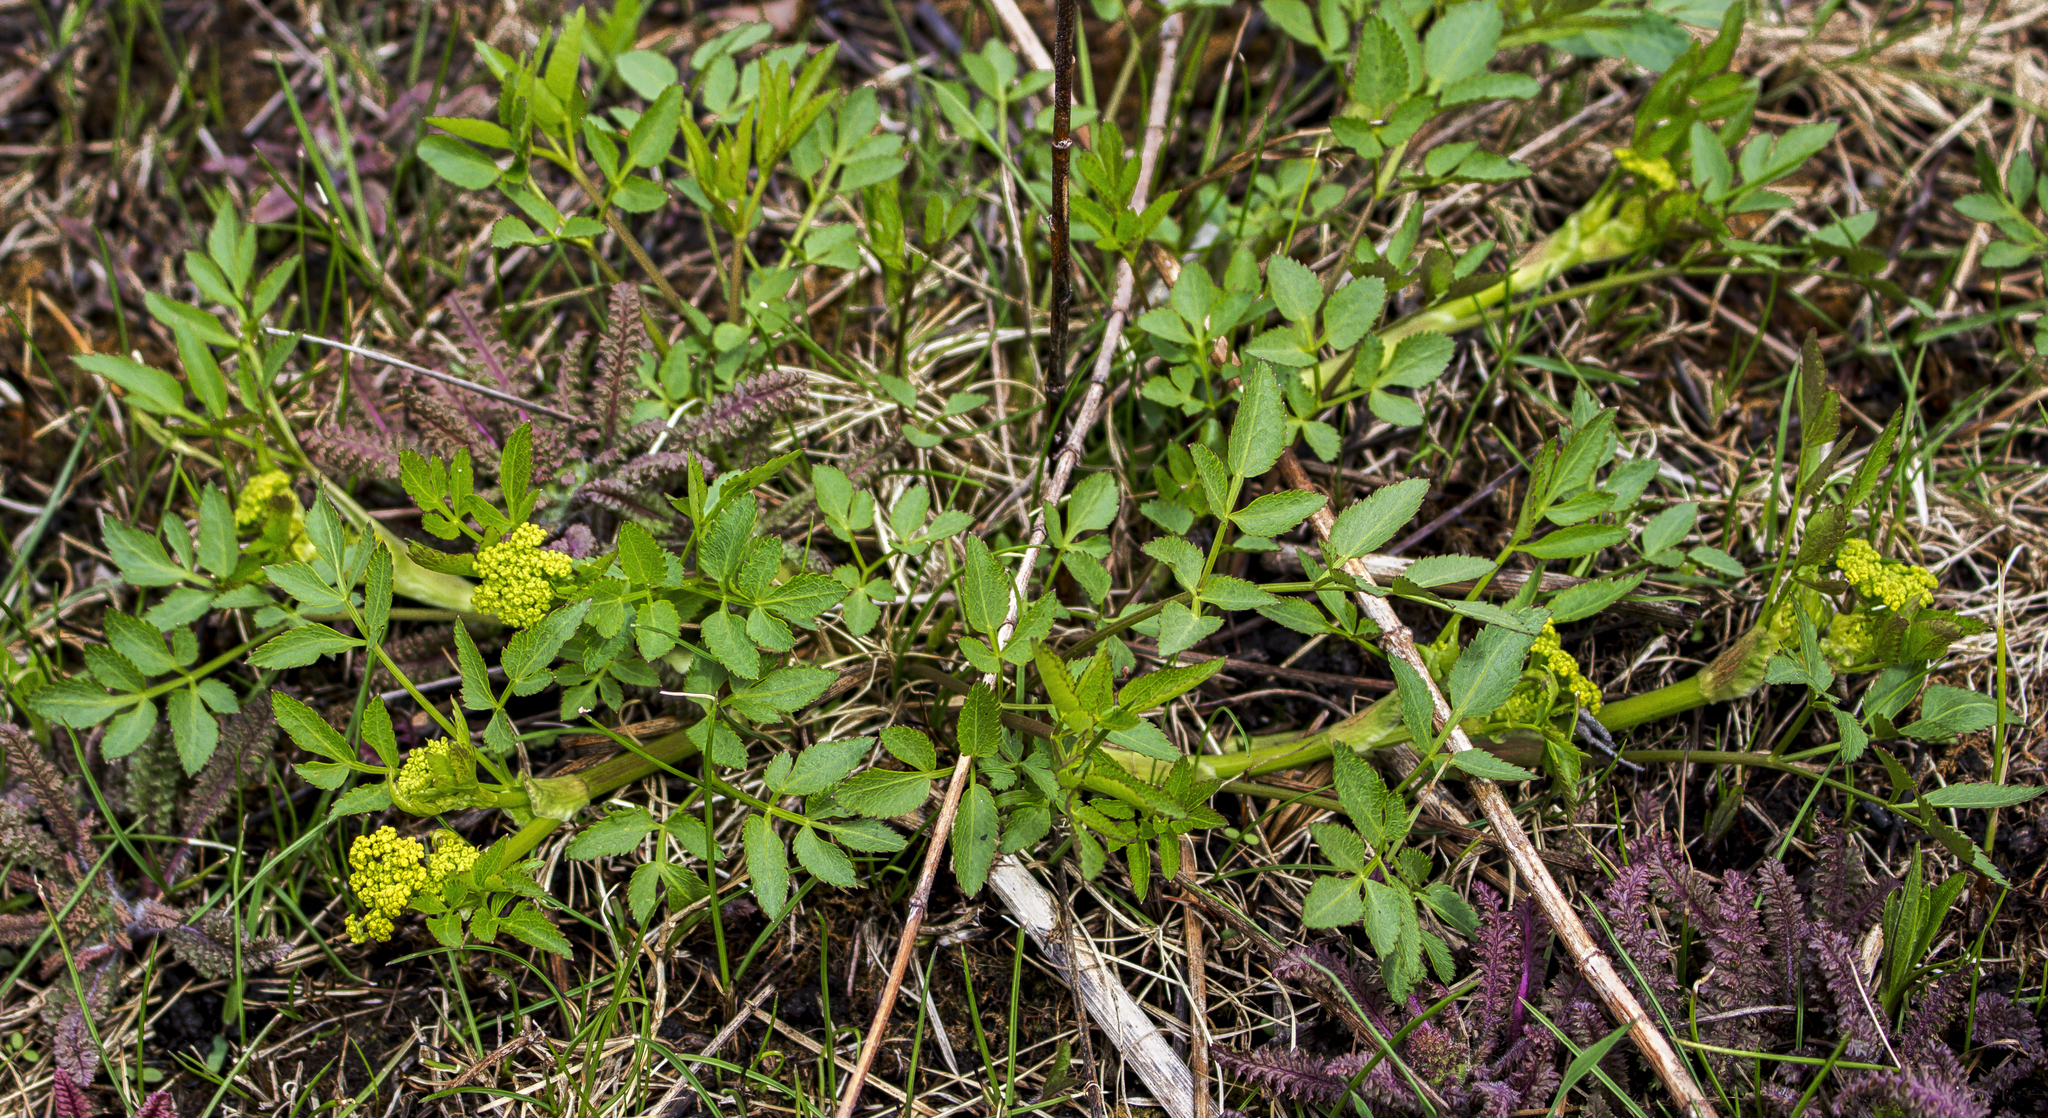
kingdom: Plantae
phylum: Tracheophyta
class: Magnoliopsida
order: Apiales
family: Apiaceae
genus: Zizia
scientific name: Zizia aurea
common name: Golden alexanders
